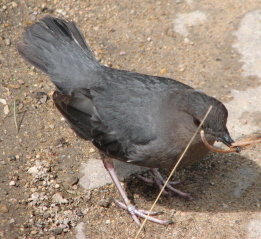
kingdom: Animalia
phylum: Chordata
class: Aves
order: Passeriformes
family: Cinclidae
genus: Cinclus
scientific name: Cinclus mexicanus
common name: American dipper
